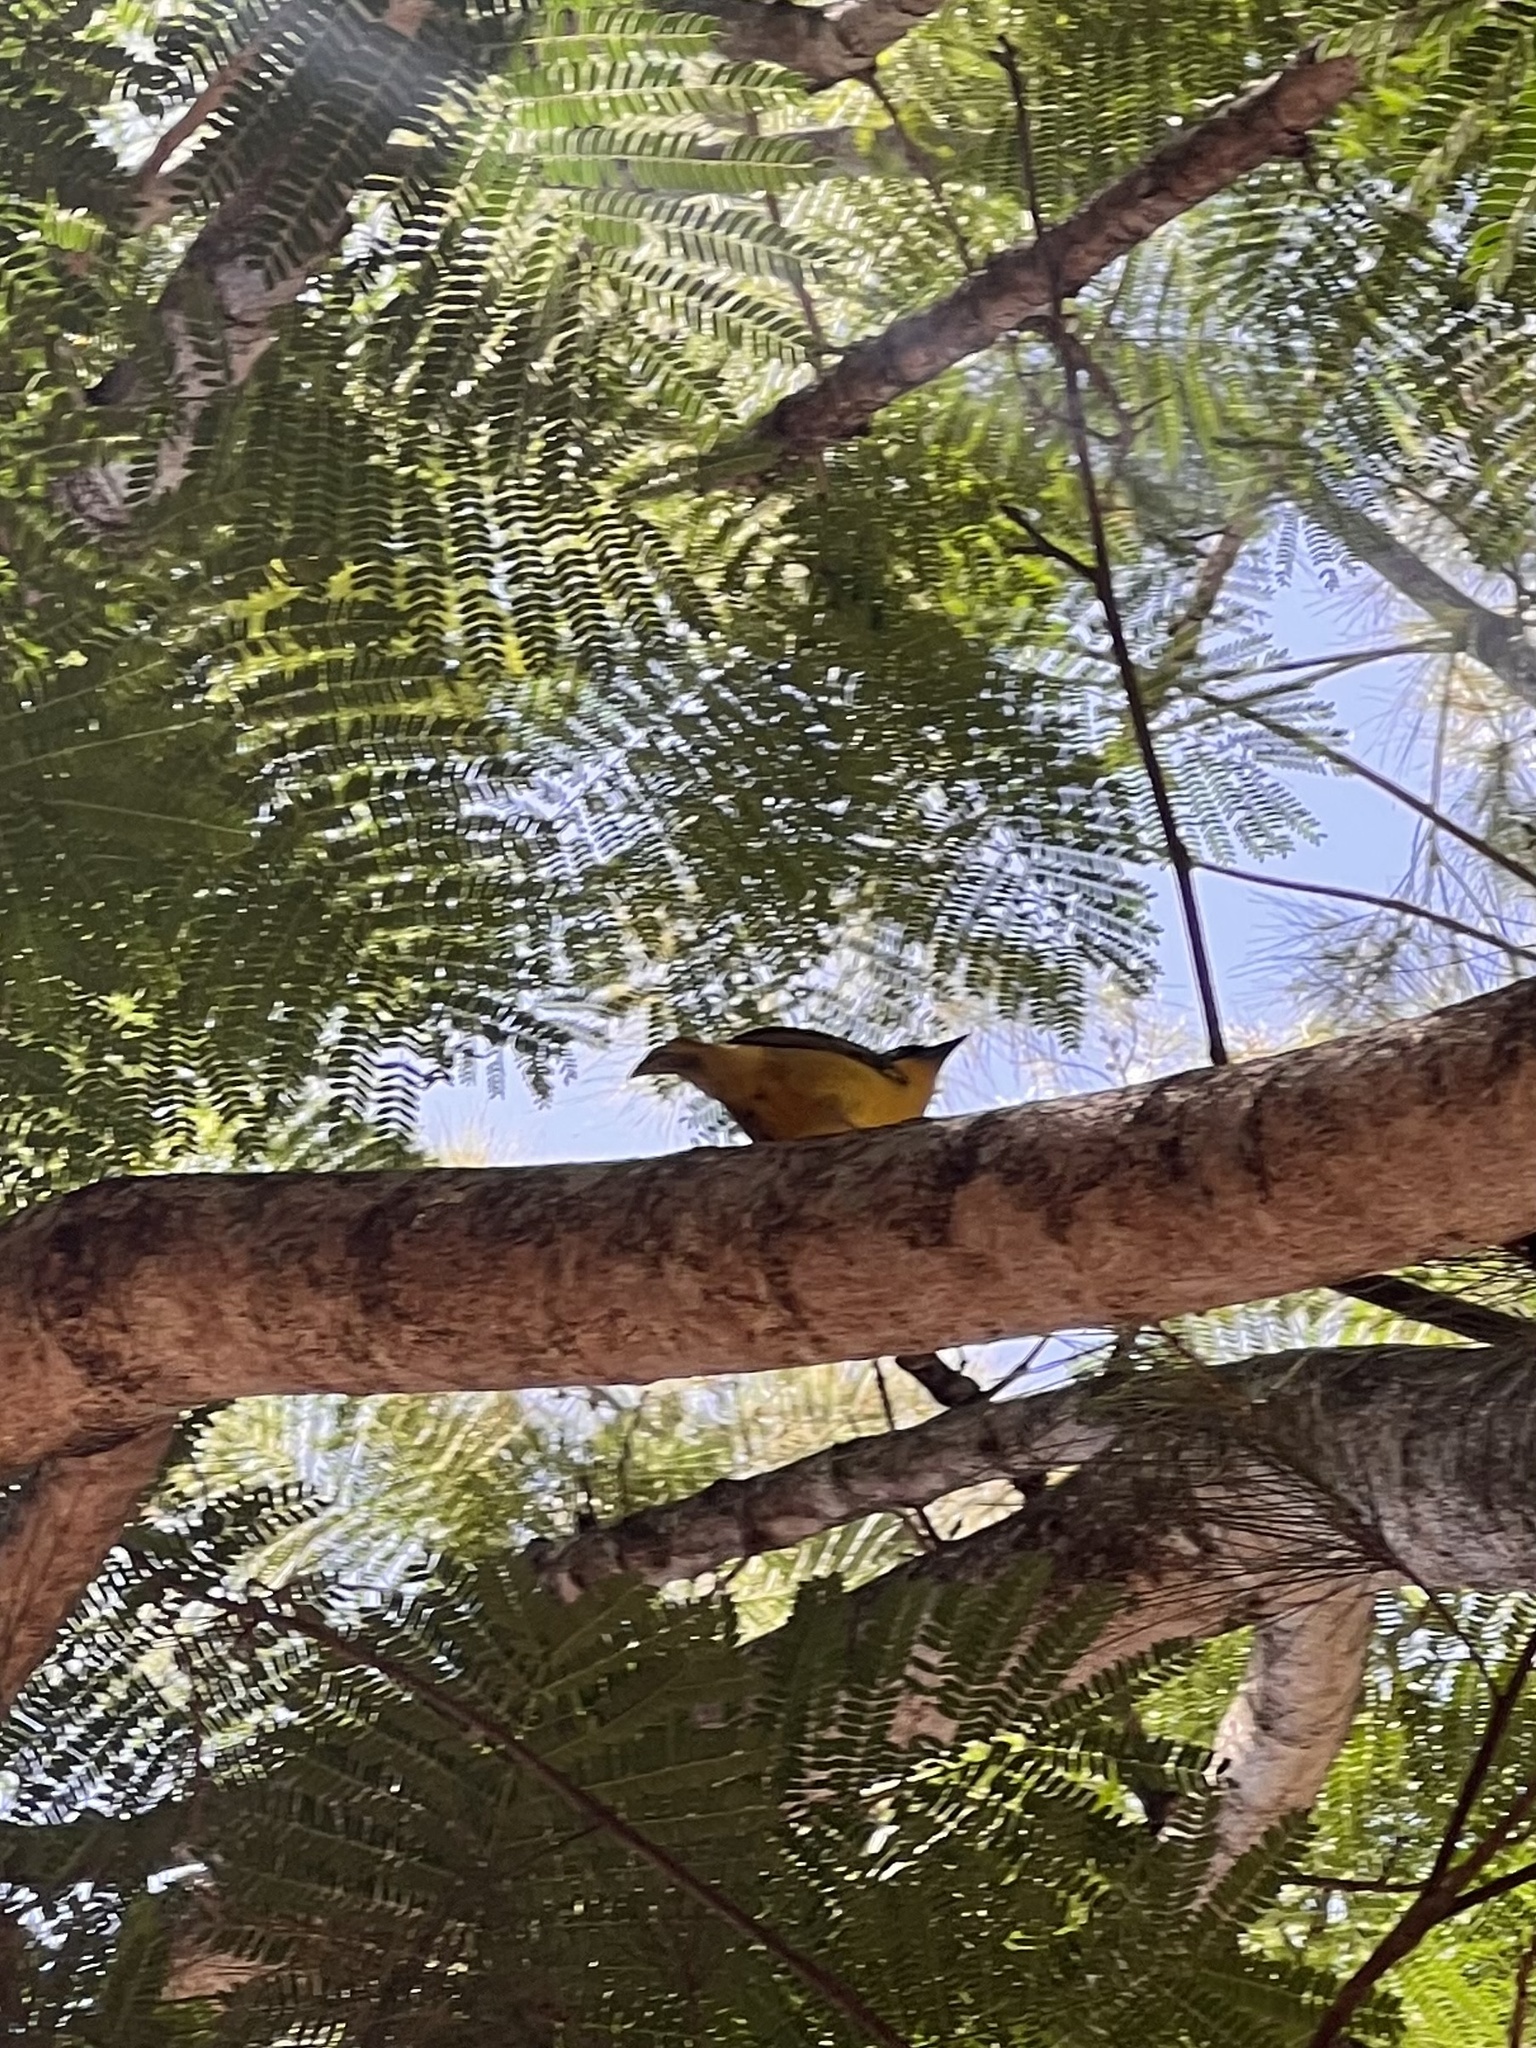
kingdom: Animalia
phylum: Chordata
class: Aves
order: Passeriformes
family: Ploceidae
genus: Ploceus
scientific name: Ploceus baglafecht
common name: Baglafecht weaver
